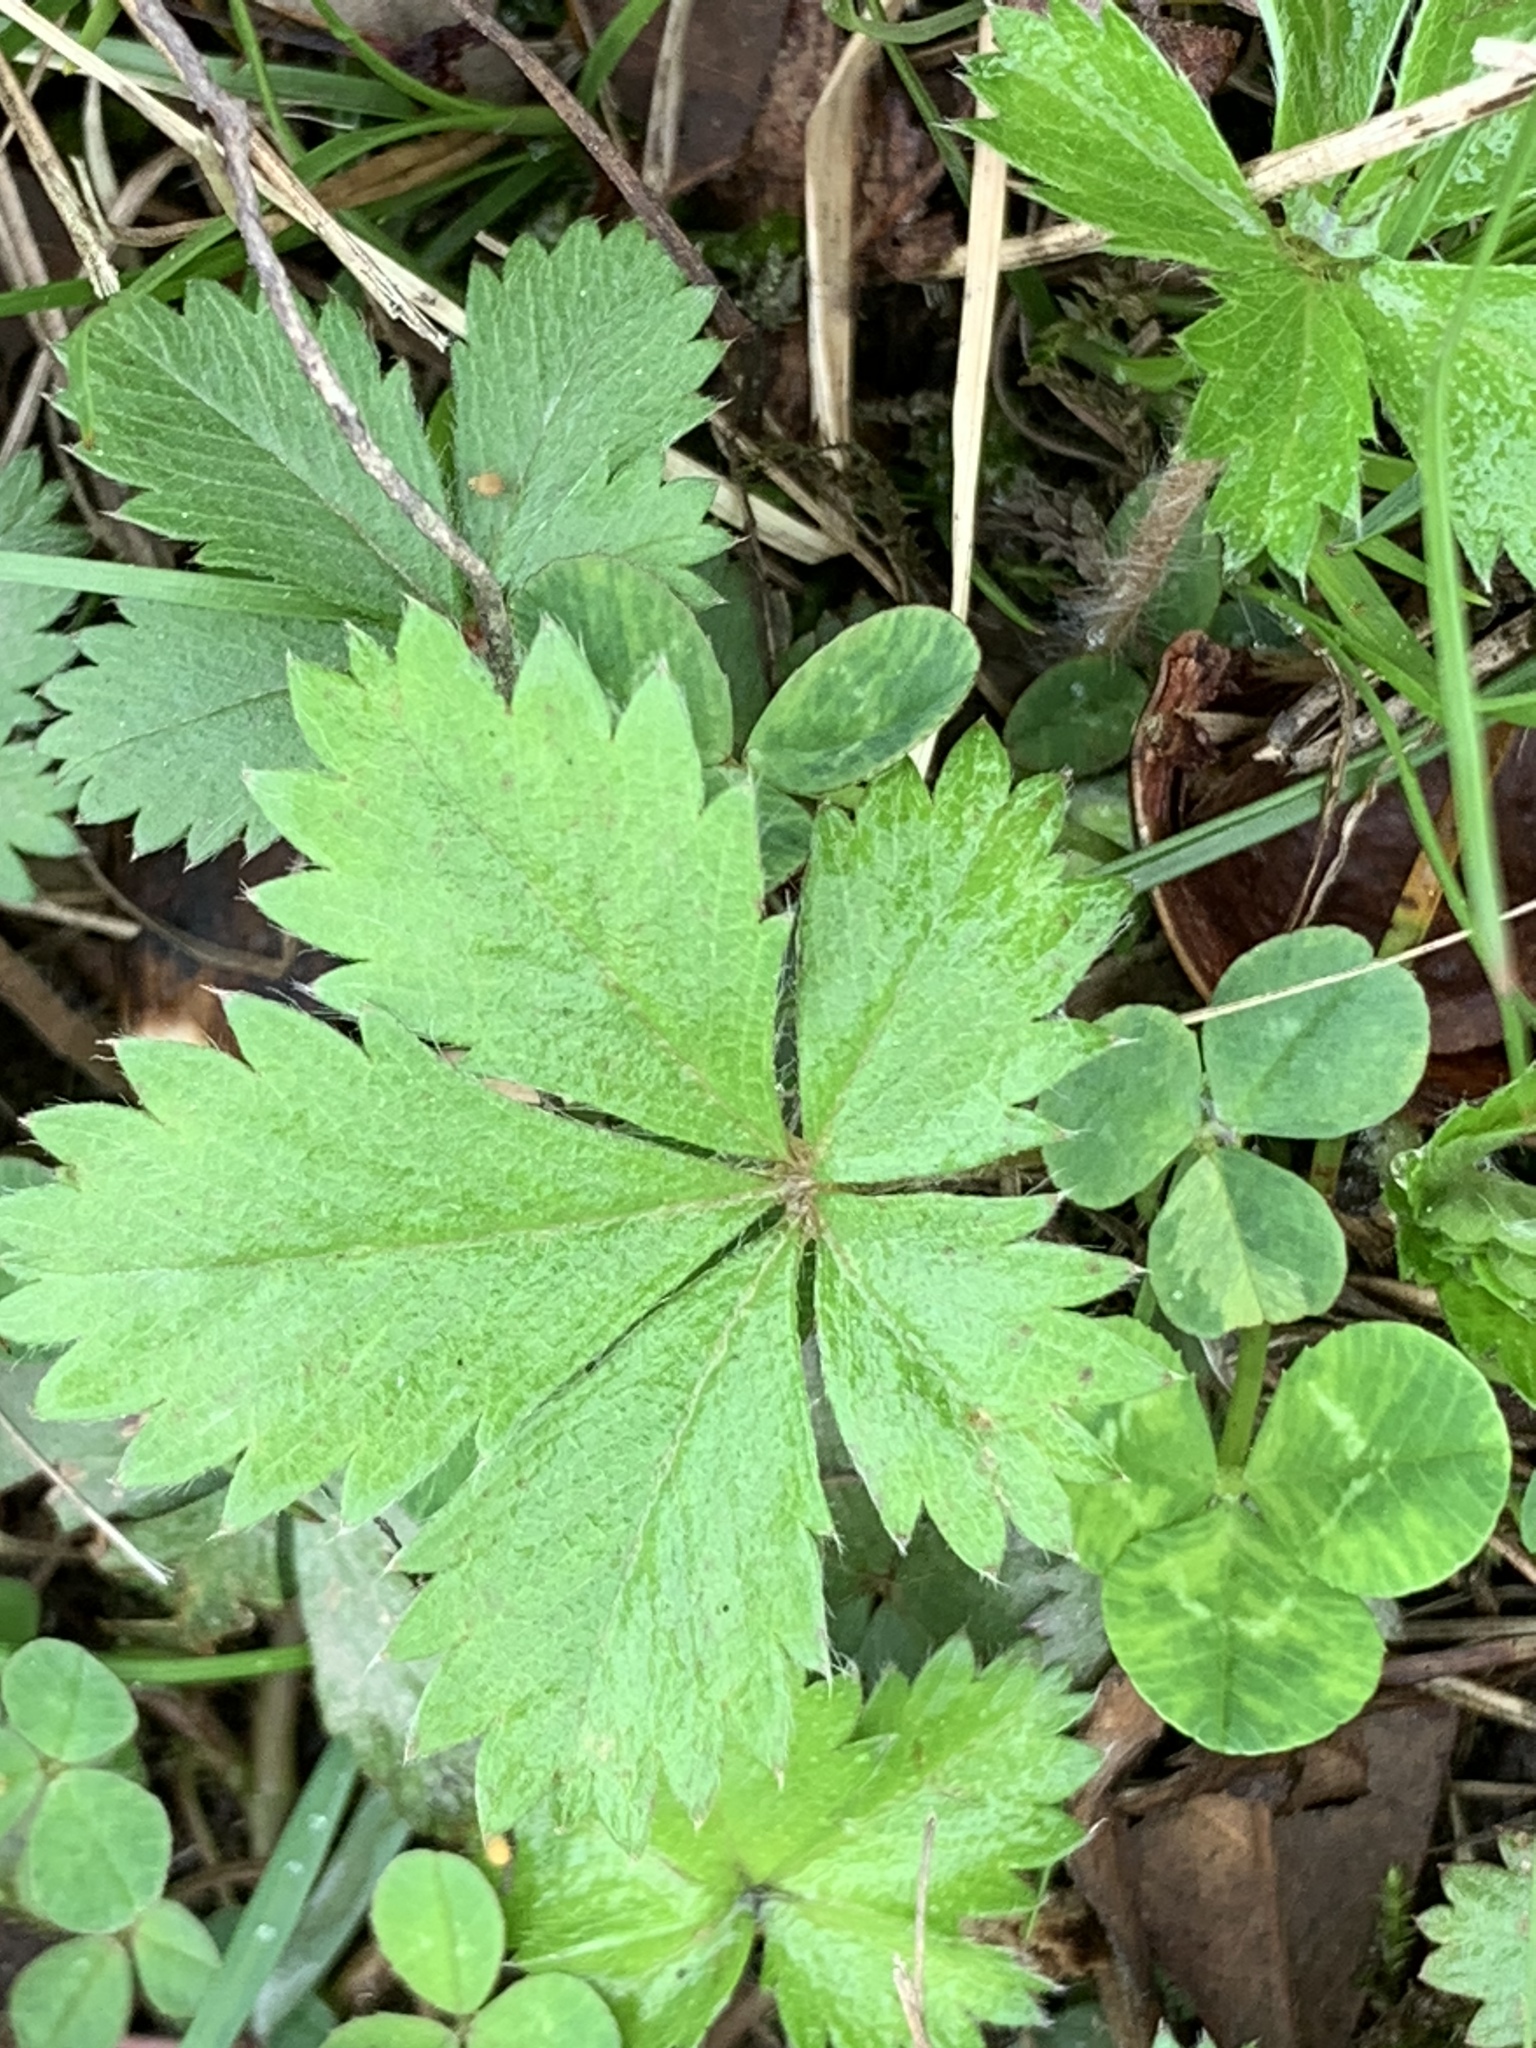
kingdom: Plantae
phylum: Tracheophyta
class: Magnoliopsida
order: Rosales
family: Rosaceae
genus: Potentilla
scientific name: Potentilla canadensis
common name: Canada cinquefoil
